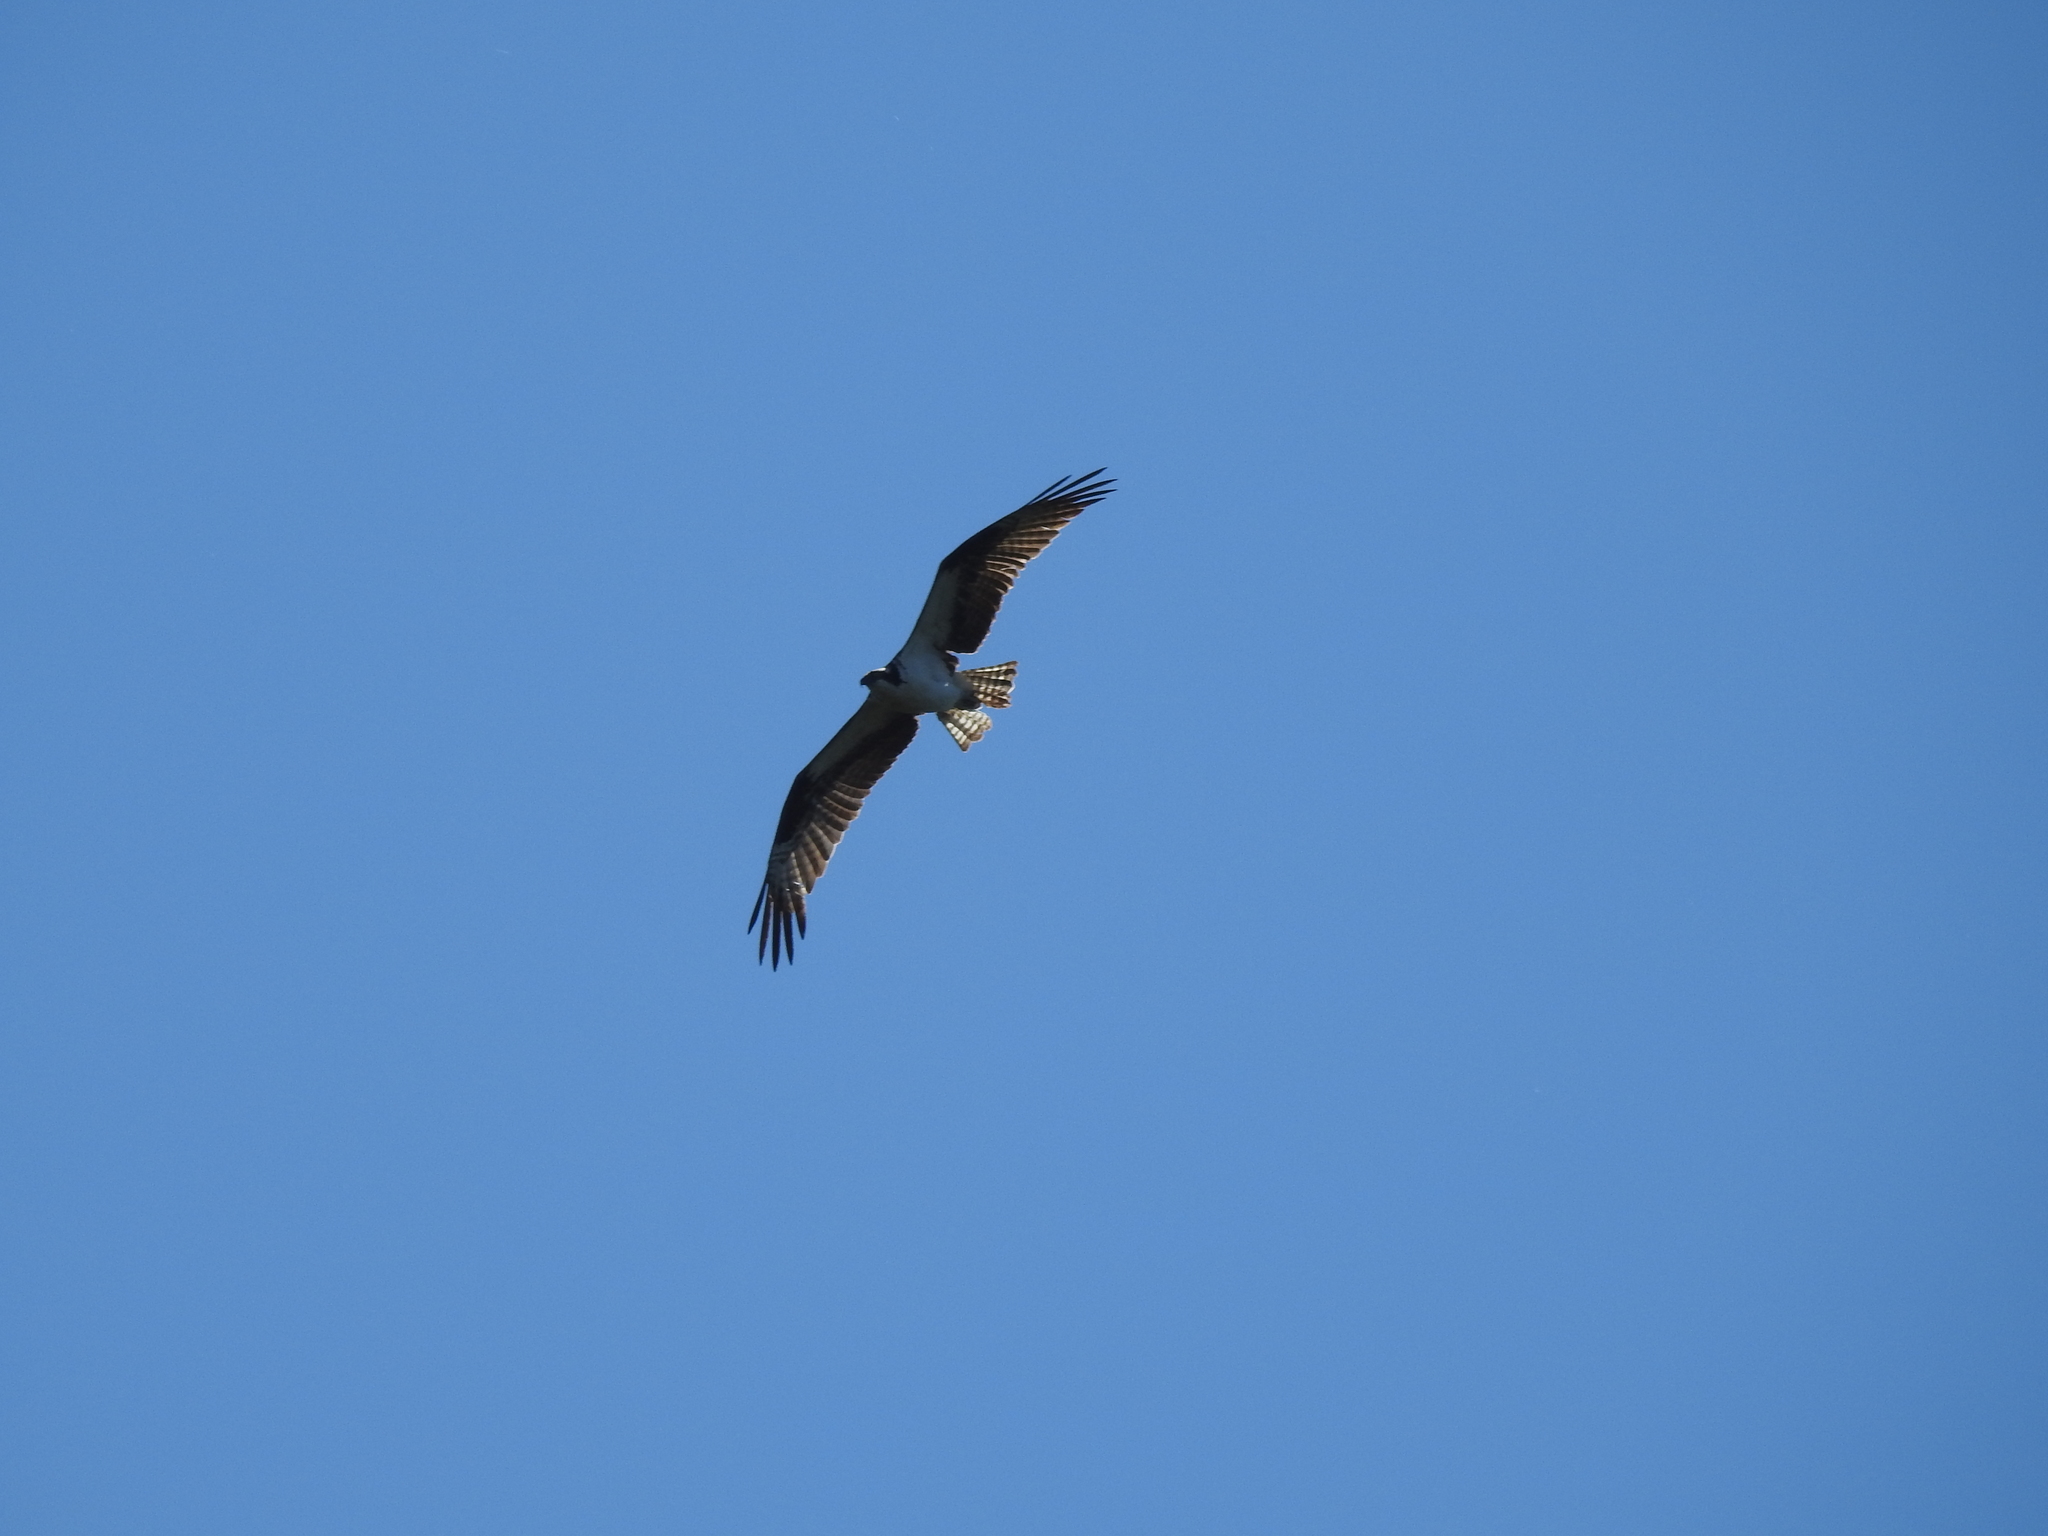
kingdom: Animalia
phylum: Chordata
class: Aves
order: Accipitriformes
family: Pandionidae
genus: Pandion
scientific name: Pandion haliaetus
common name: Osprey
